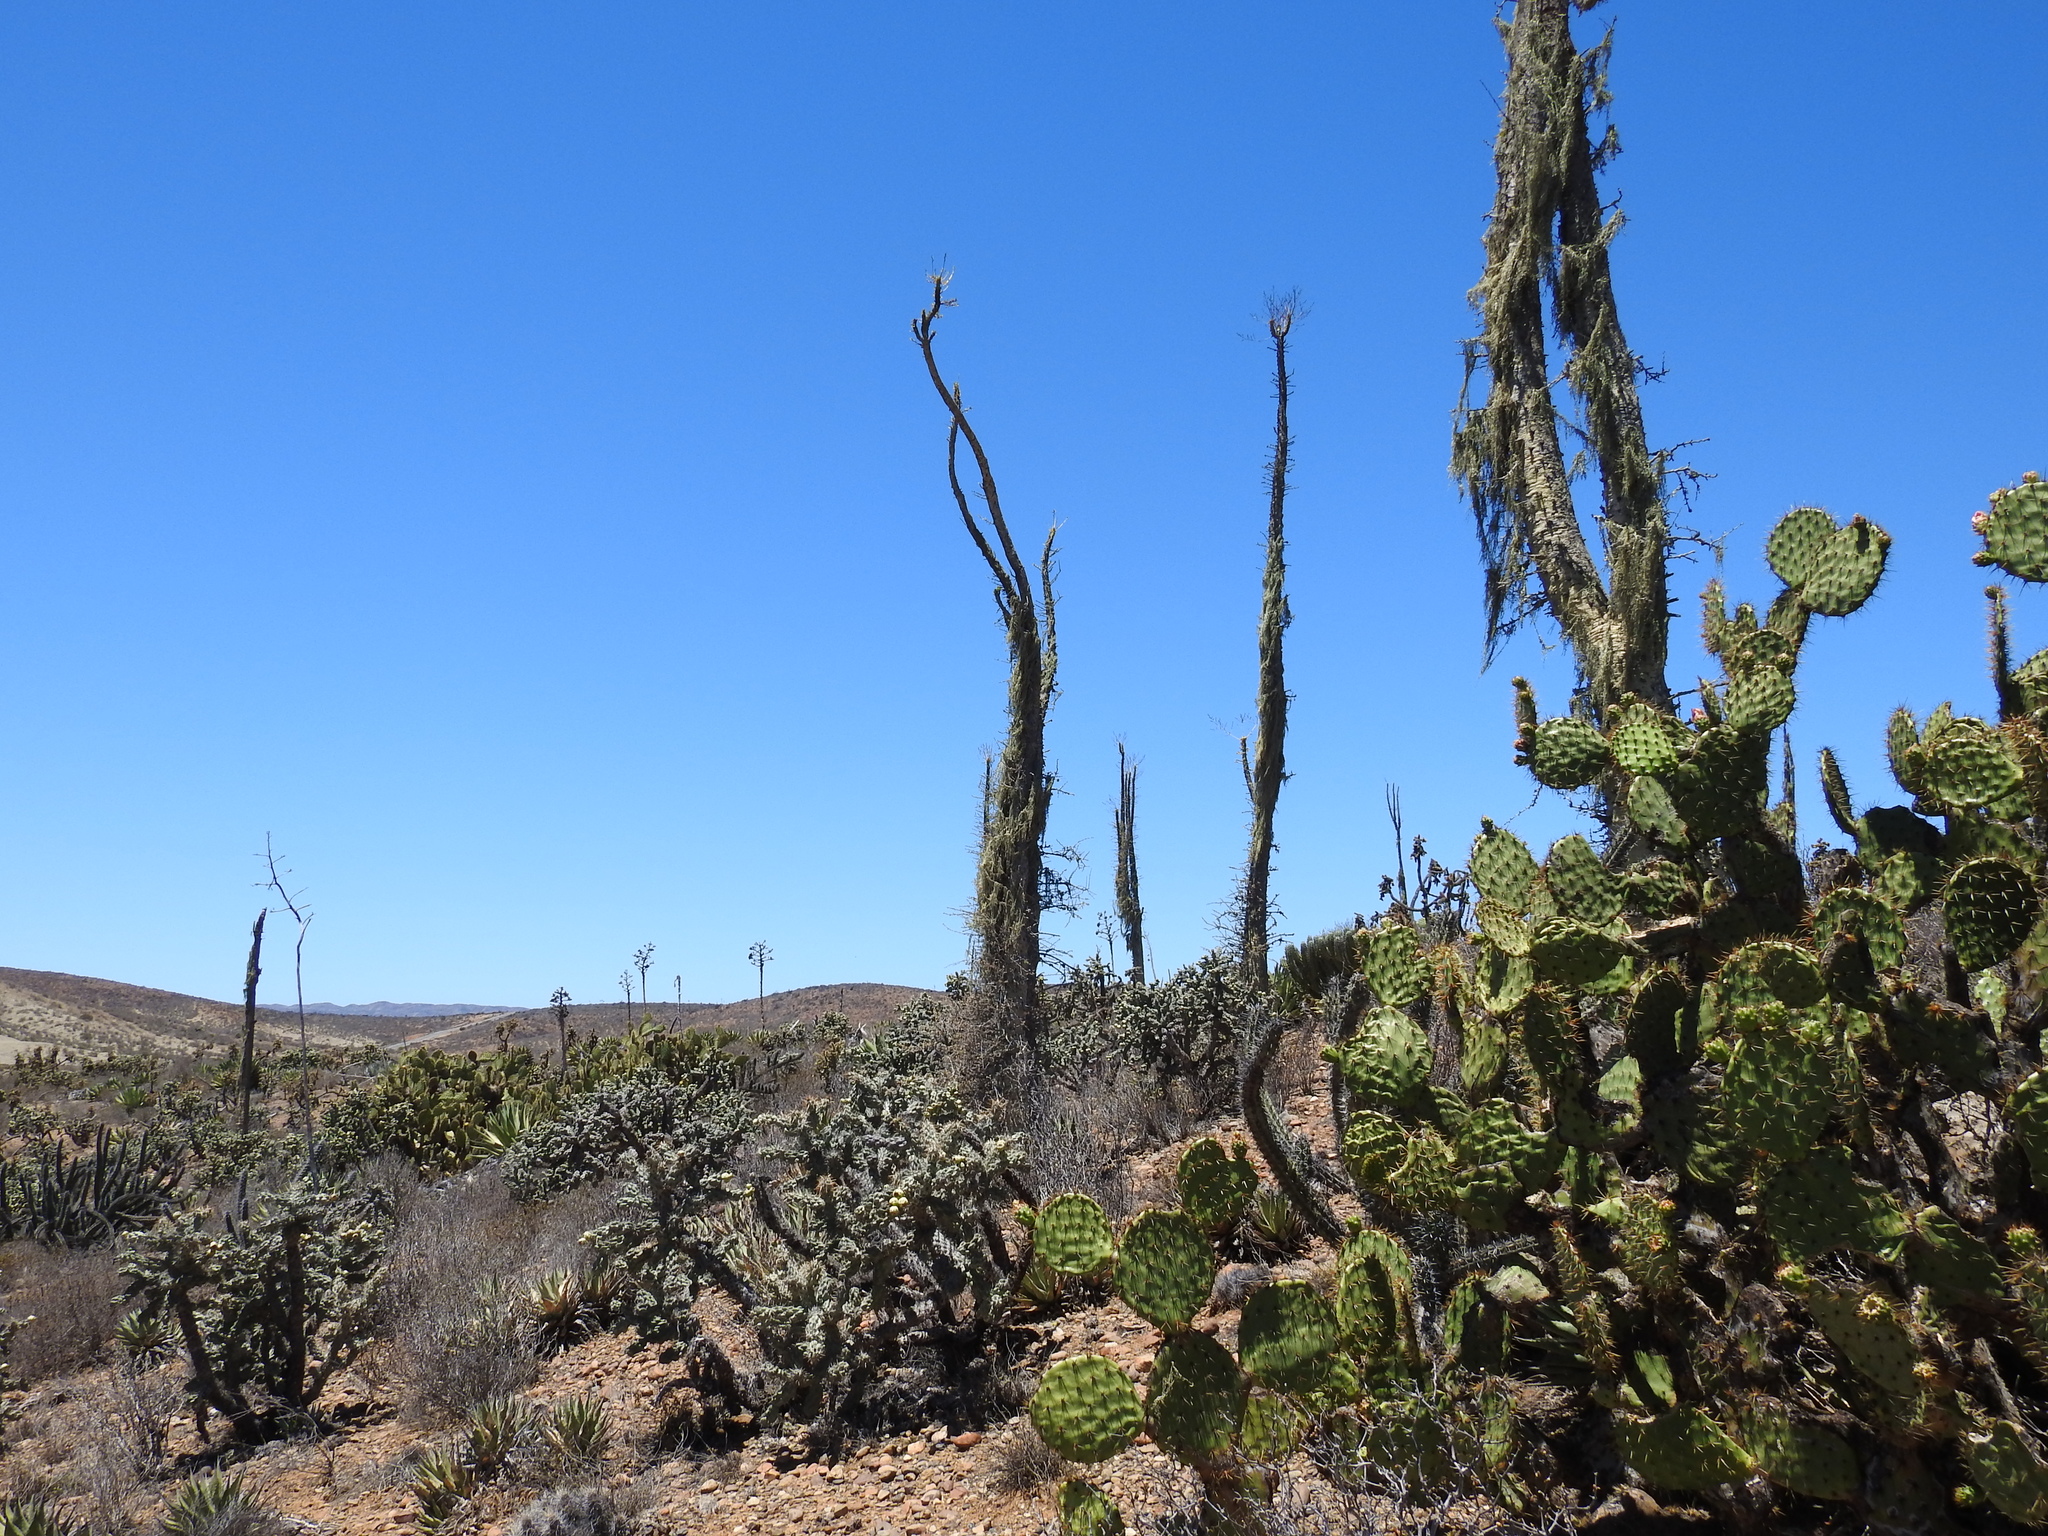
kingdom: Plantae
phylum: Tracheophyta
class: Magnoliopsida
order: Ericales
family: Fouquieriaceae
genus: Fouquieria
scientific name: Fouquieria columnaris
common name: Boojumtree
